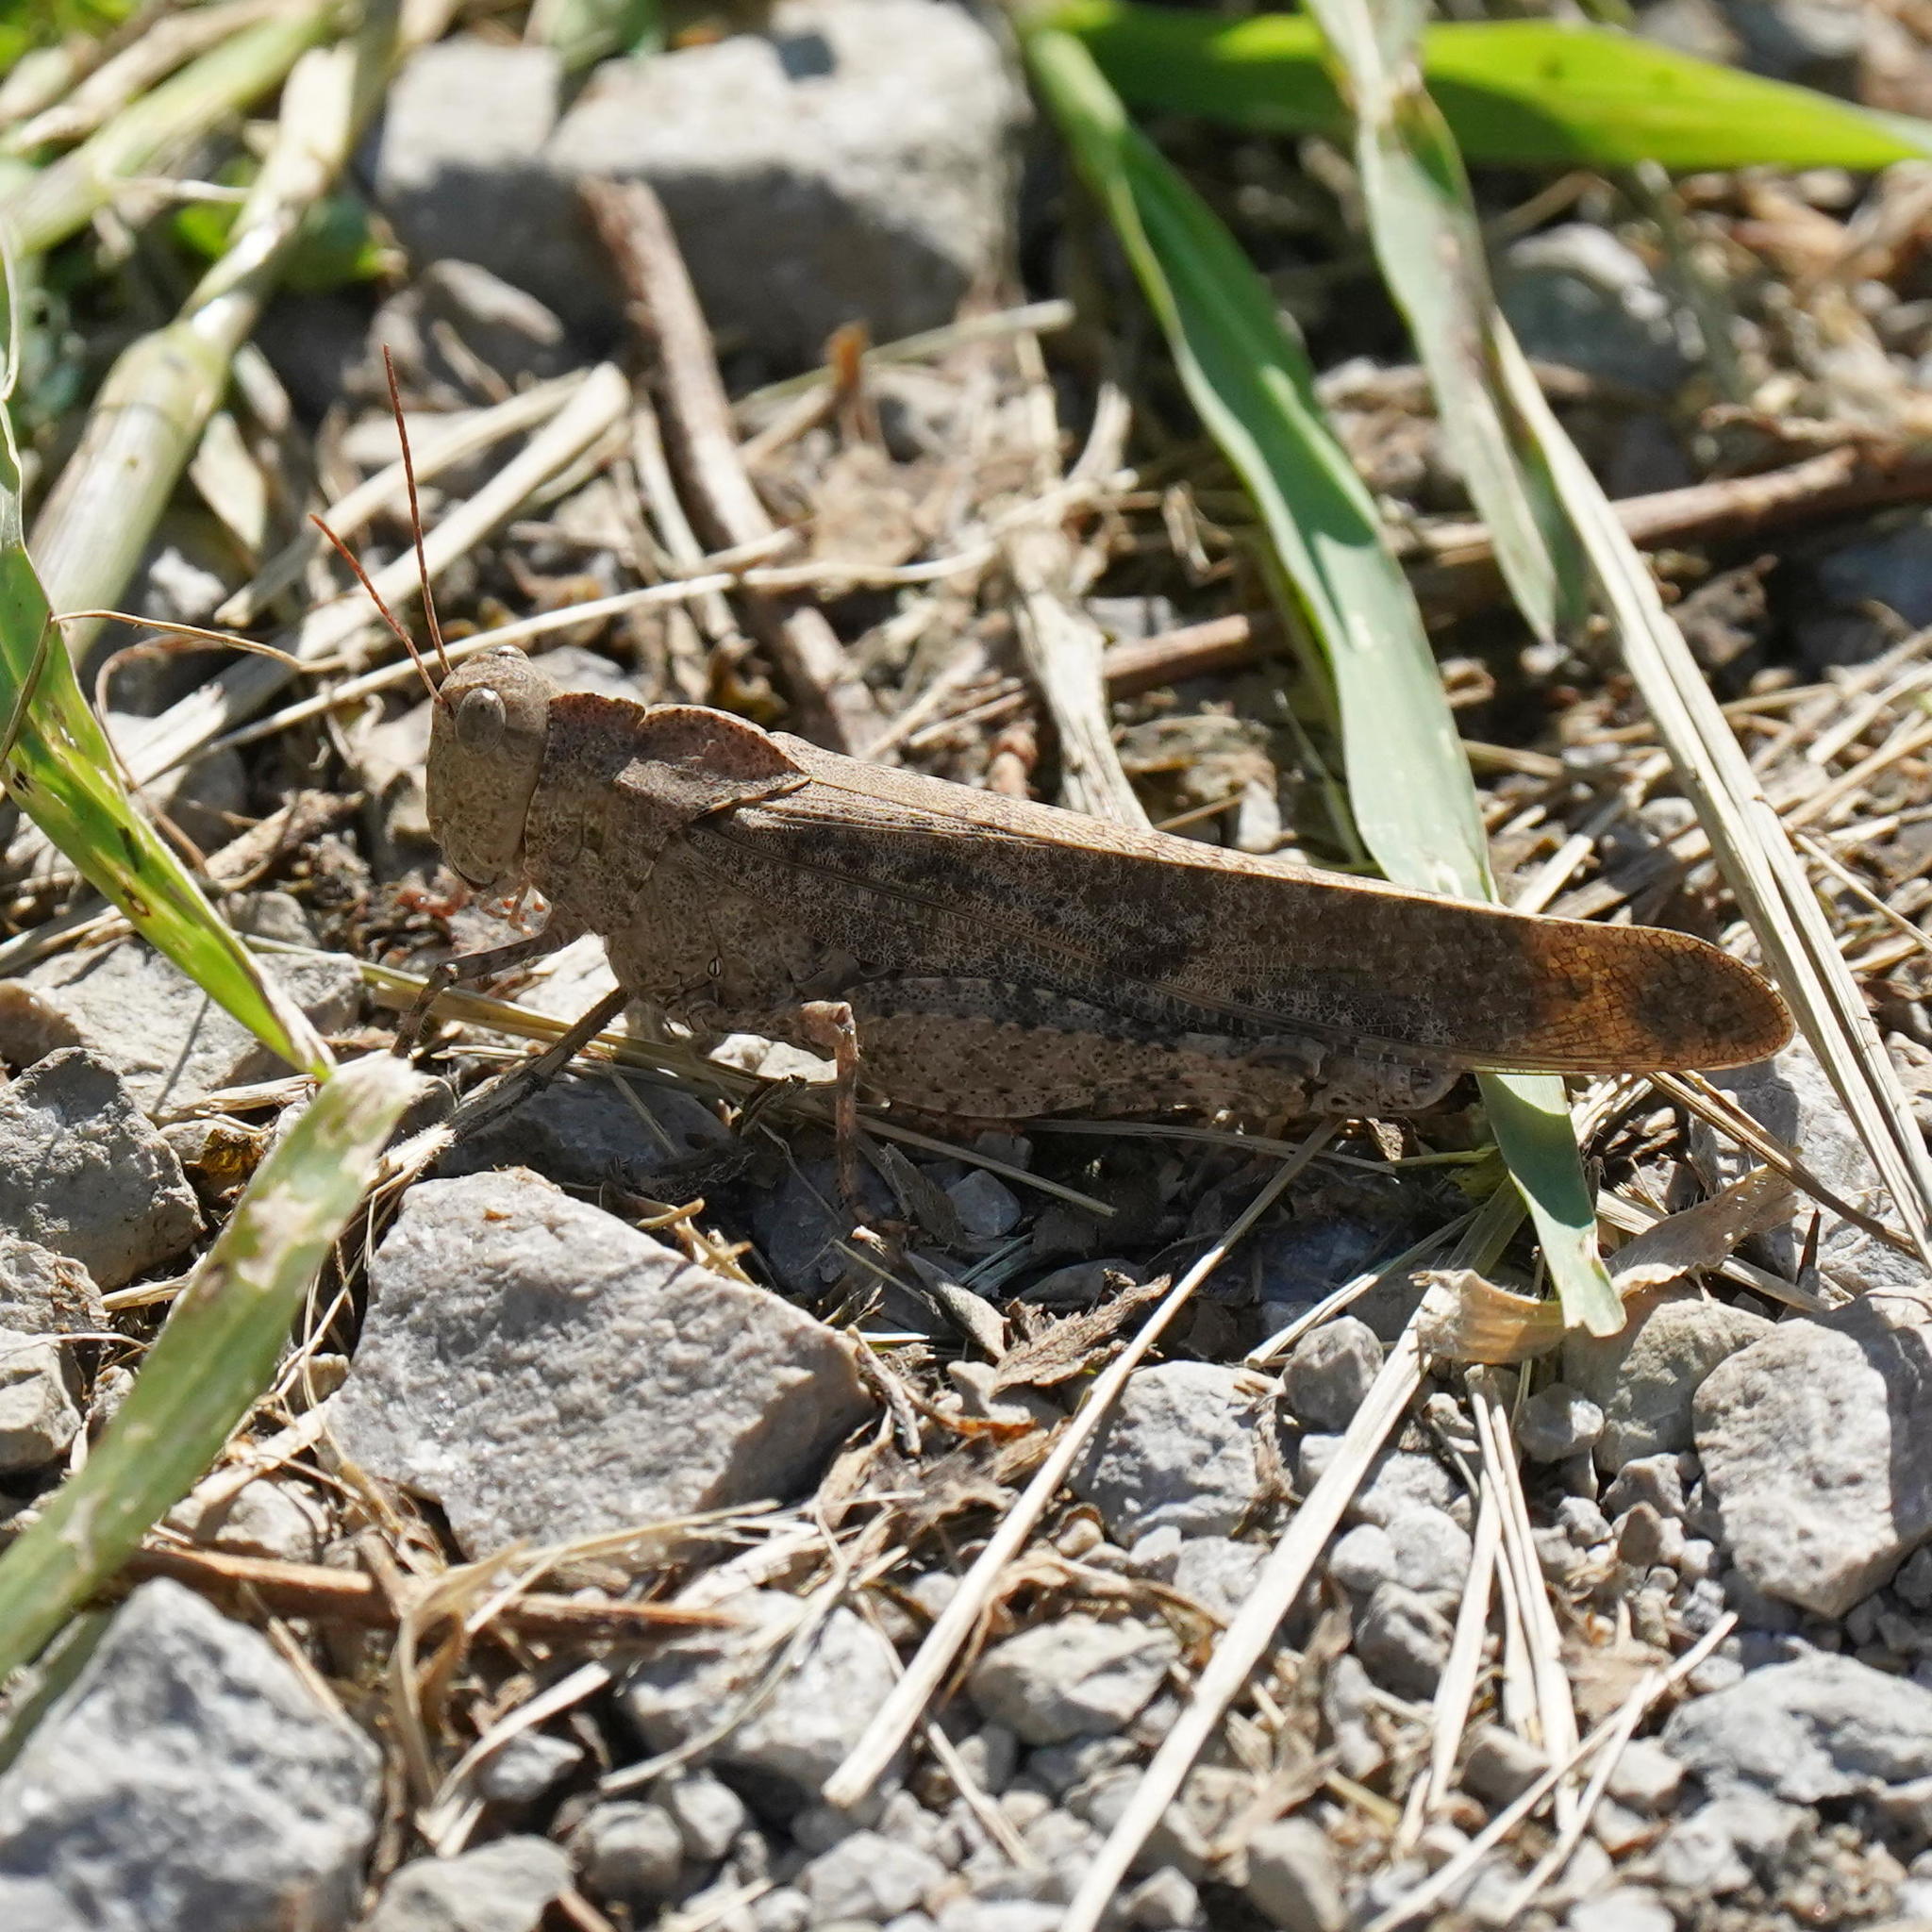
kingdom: Animalia
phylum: Arthropoda
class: Insecta
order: Orthoptera
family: Acrididae
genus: Dissosteira
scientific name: Dissosteira carolina
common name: Carolina grasshopper
